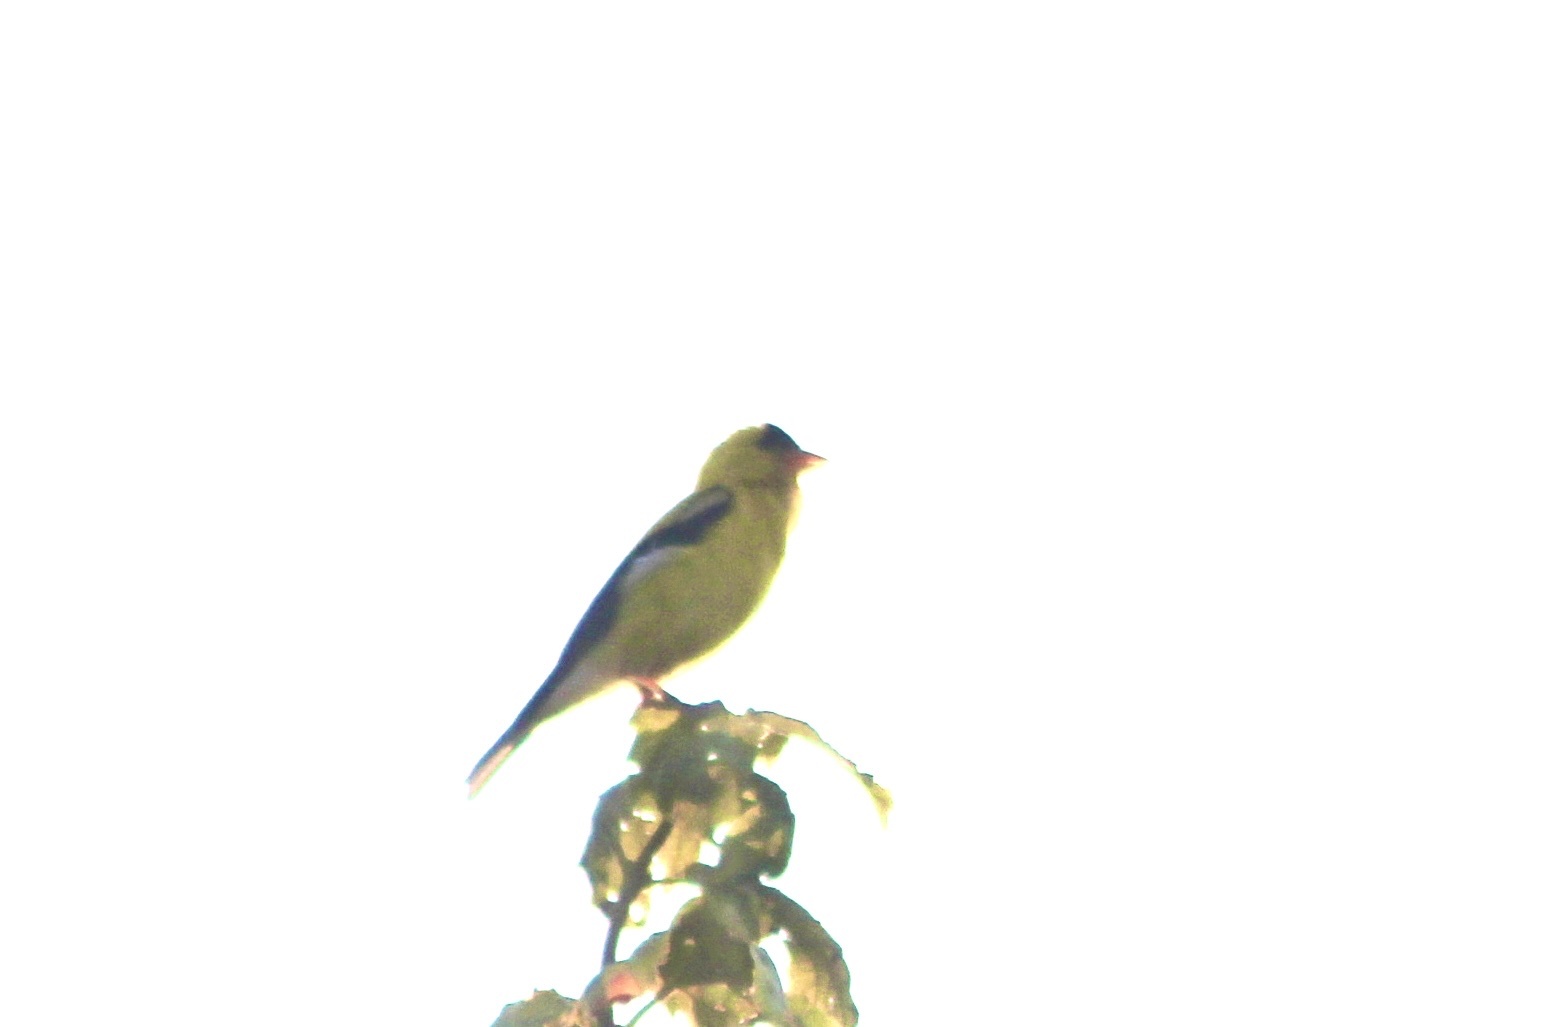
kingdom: Animalia
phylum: Chordata
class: Aves
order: Passeriformes
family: Fringillidae
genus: Spinus
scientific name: Spinus tristis
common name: American goldfinch
